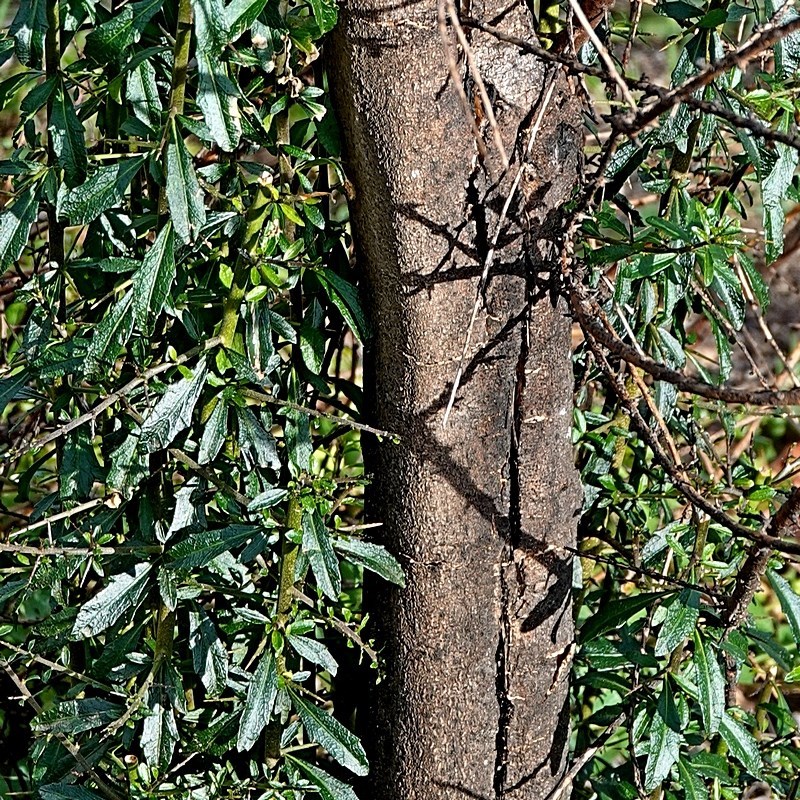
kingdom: Plantae
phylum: Tracheophyta
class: Magnoliopsida
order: Malpighiales
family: Violaceae
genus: Melicytus
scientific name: Melicytus dentatus
